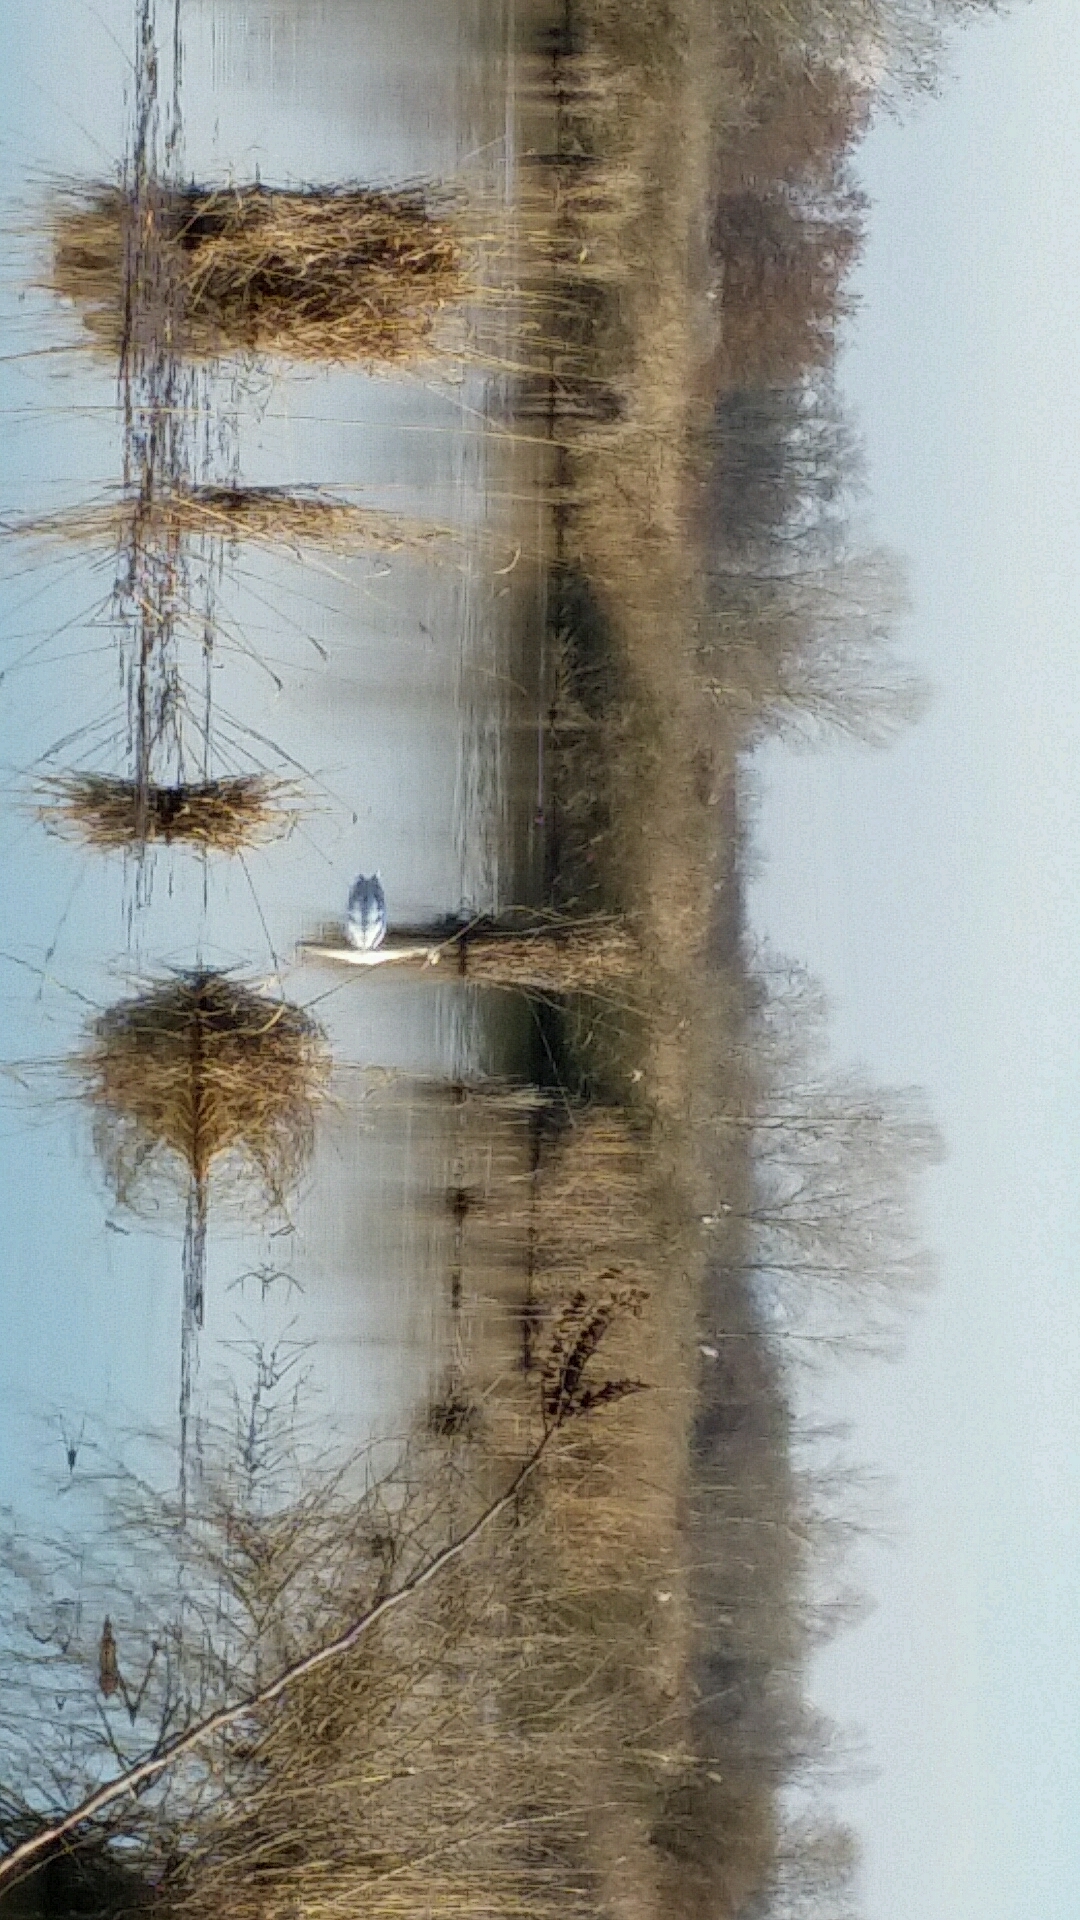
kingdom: Animalia
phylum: Chordata
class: Aves
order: Anseriformes
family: Anatidae
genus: Cygnus
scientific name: Cygnus olor
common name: Mute swan
